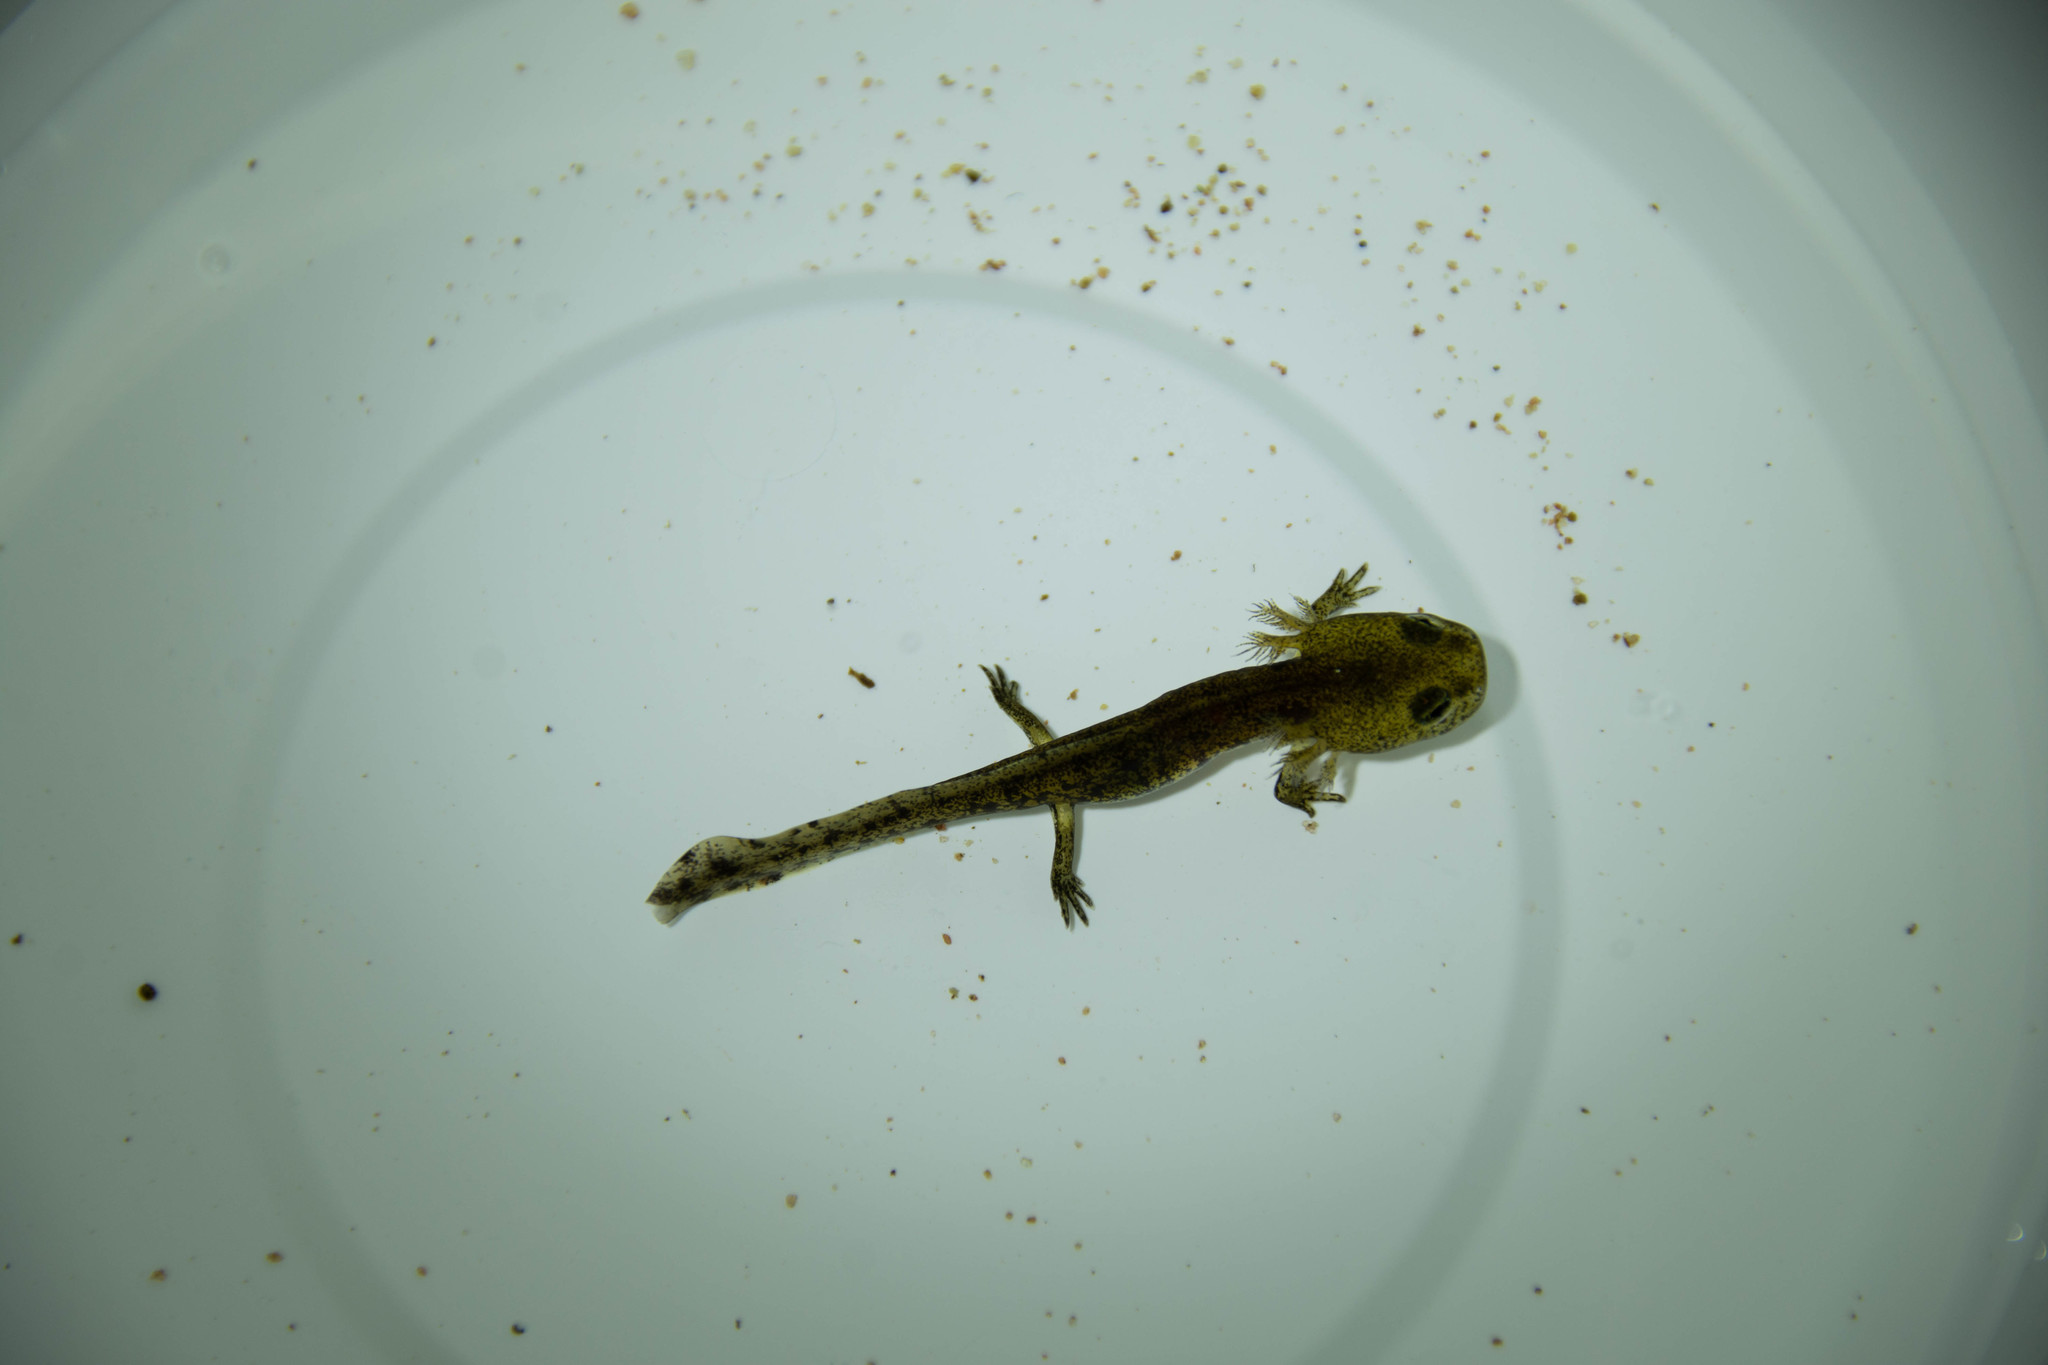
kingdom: Animalia
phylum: Chordata
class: Amphibia
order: Caudata
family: Salamandridae
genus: Salamandra
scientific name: Salamandra salamandra
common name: Fire salamander
